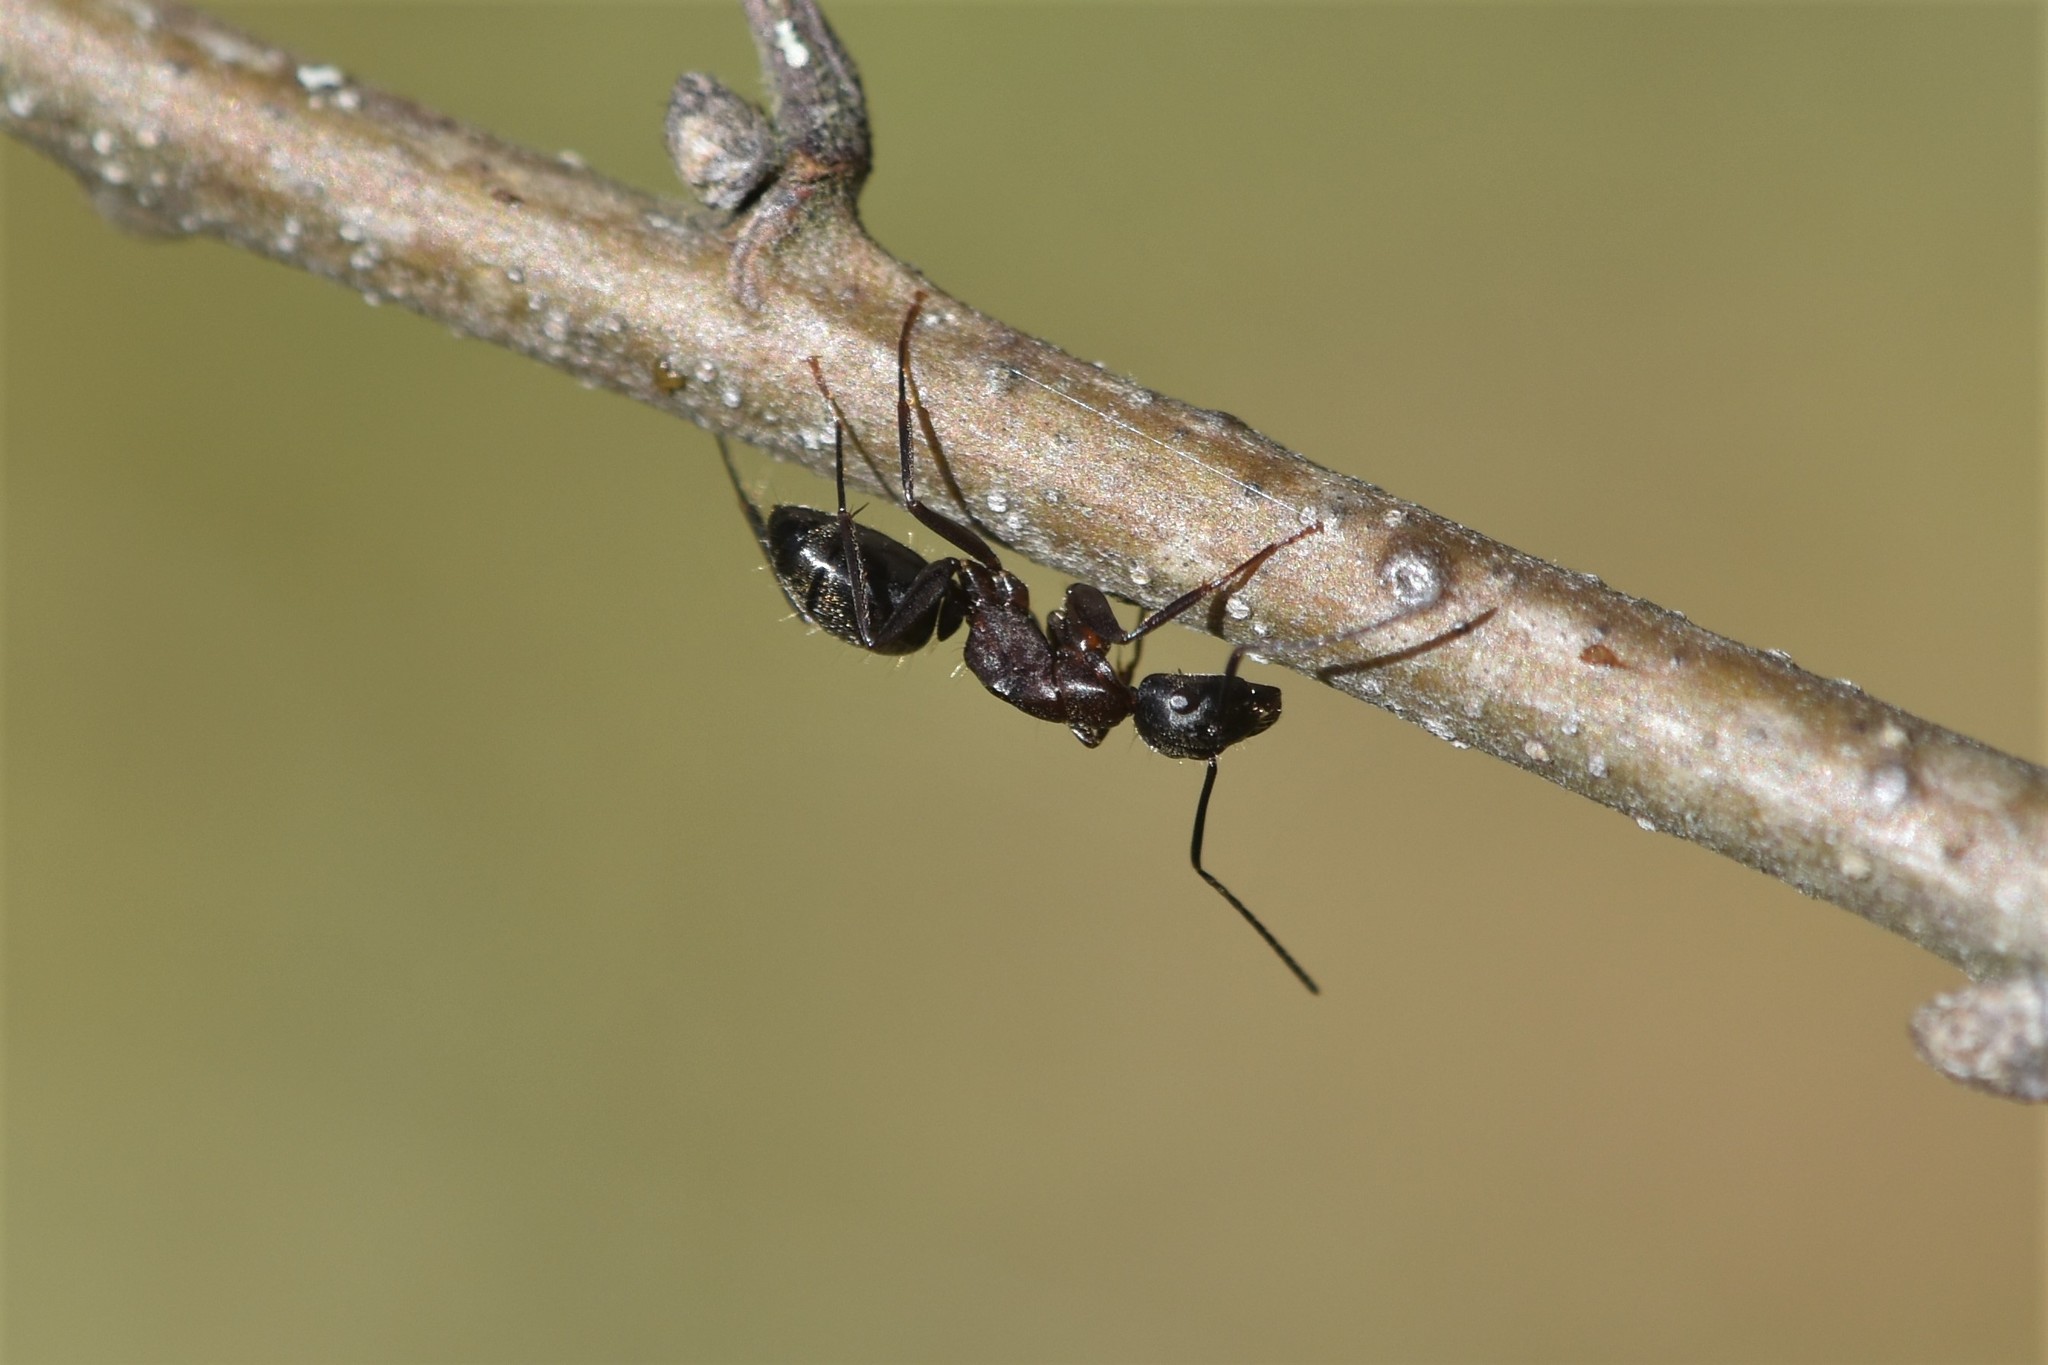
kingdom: Animalia
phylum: Arthropoda
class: Insecta
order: Hymenoptera
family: Formicidae
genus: Camponotus
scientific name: Camponotus modoc
